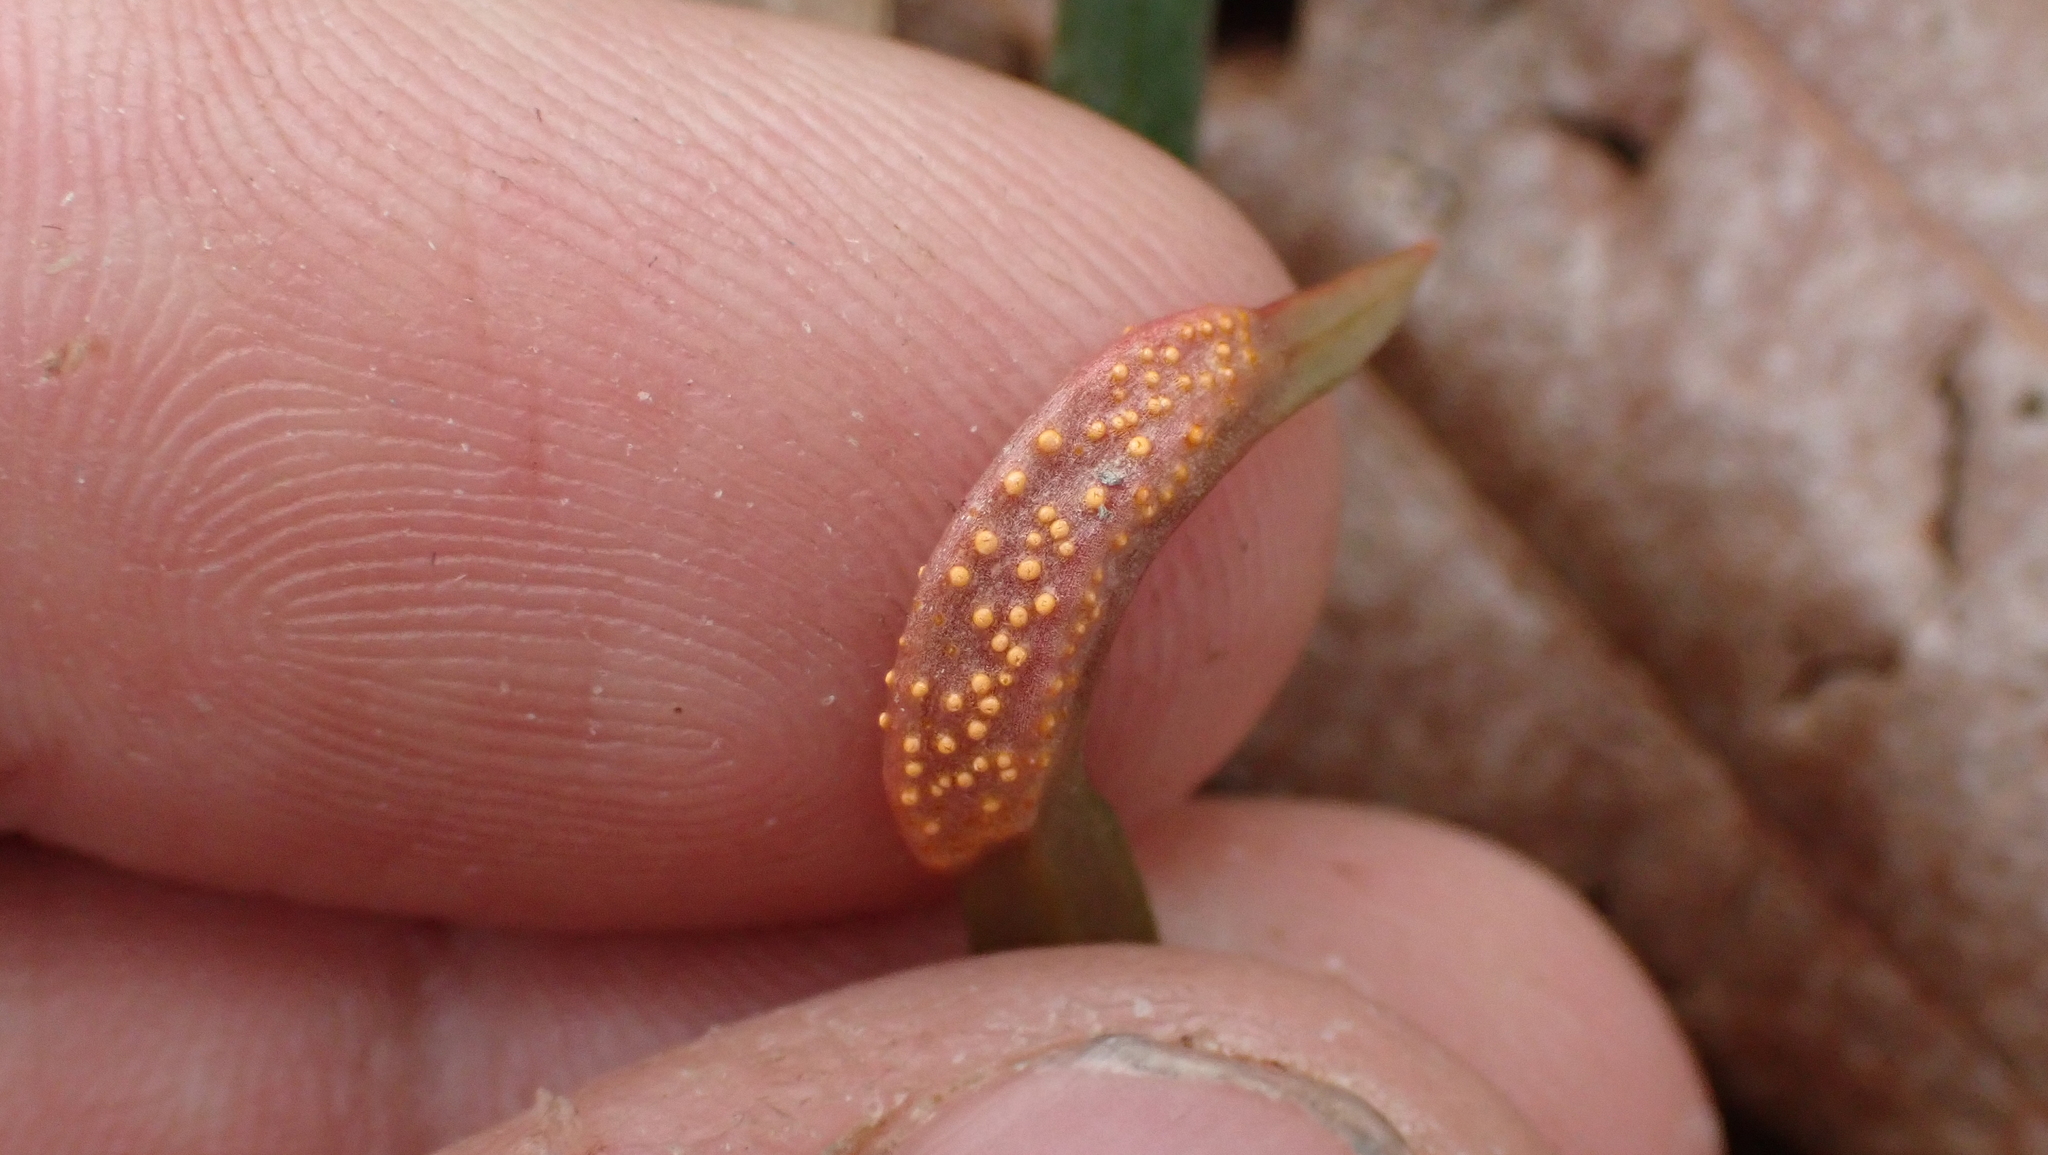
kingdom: Fungi
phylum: Basidiomycota
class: Pucciniomycetes
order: Pucciniales
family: Pucciniaceae
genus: Puccinia
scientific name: Puccinia mariae-wilsoniae
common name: Spring beauty rust
